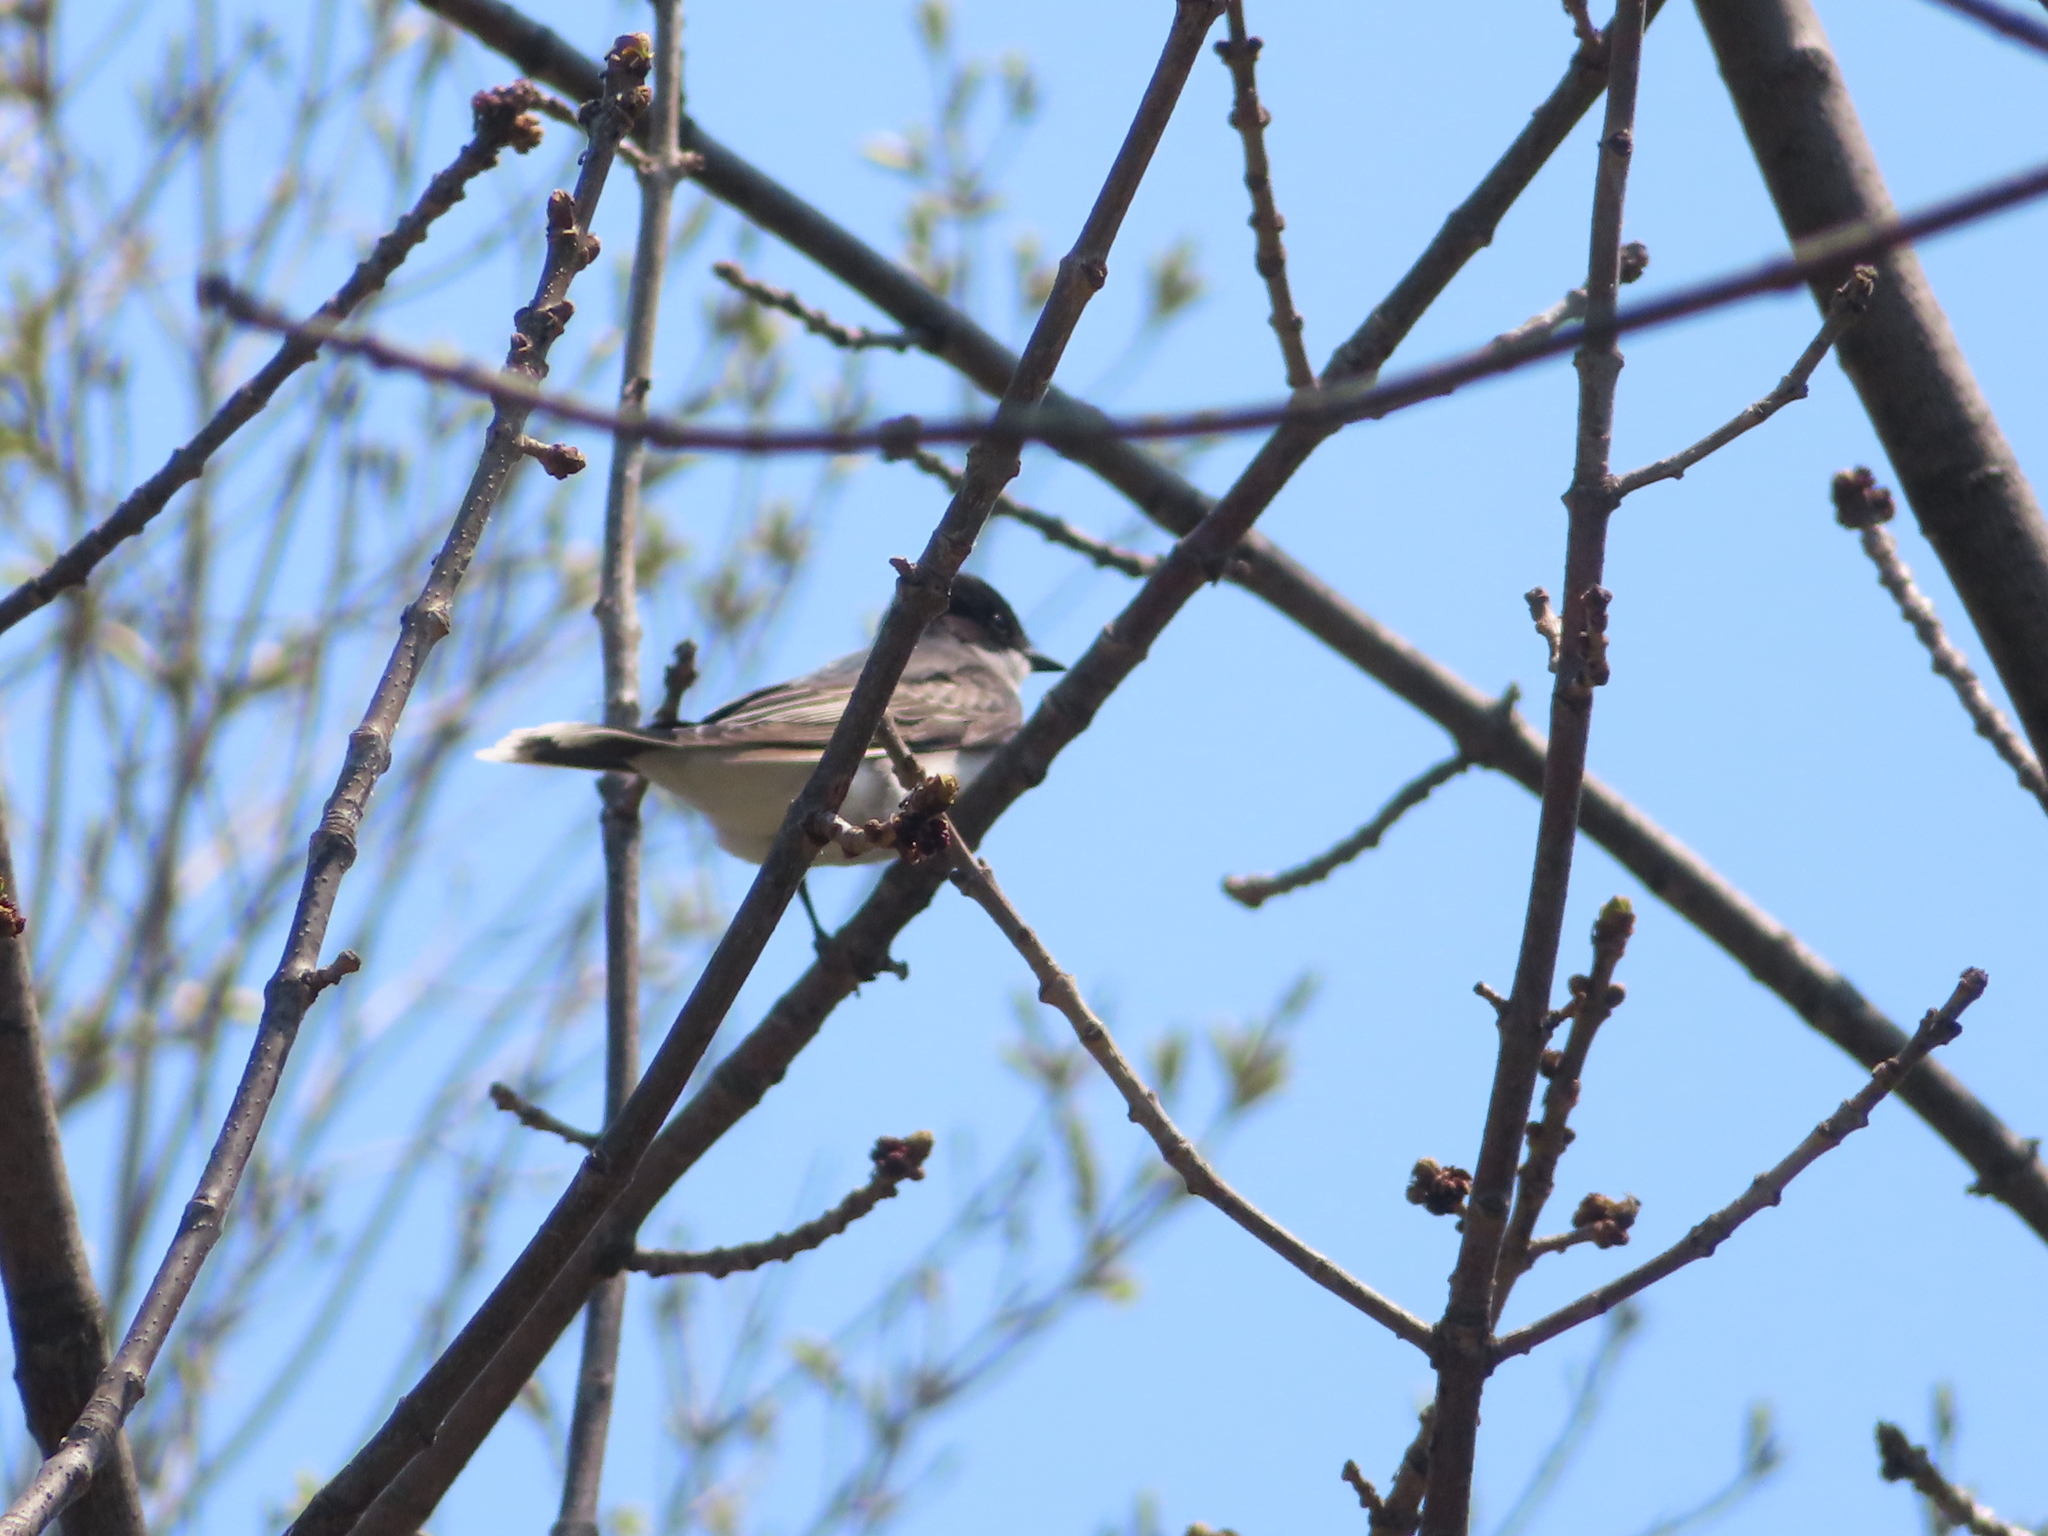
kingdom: Animalia
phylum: Chordata
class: Aves
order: Passeriformes
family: Tyrannidae
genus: Tyrannus
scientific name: Tyrannus tyrannus
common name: Eastern kingbird
